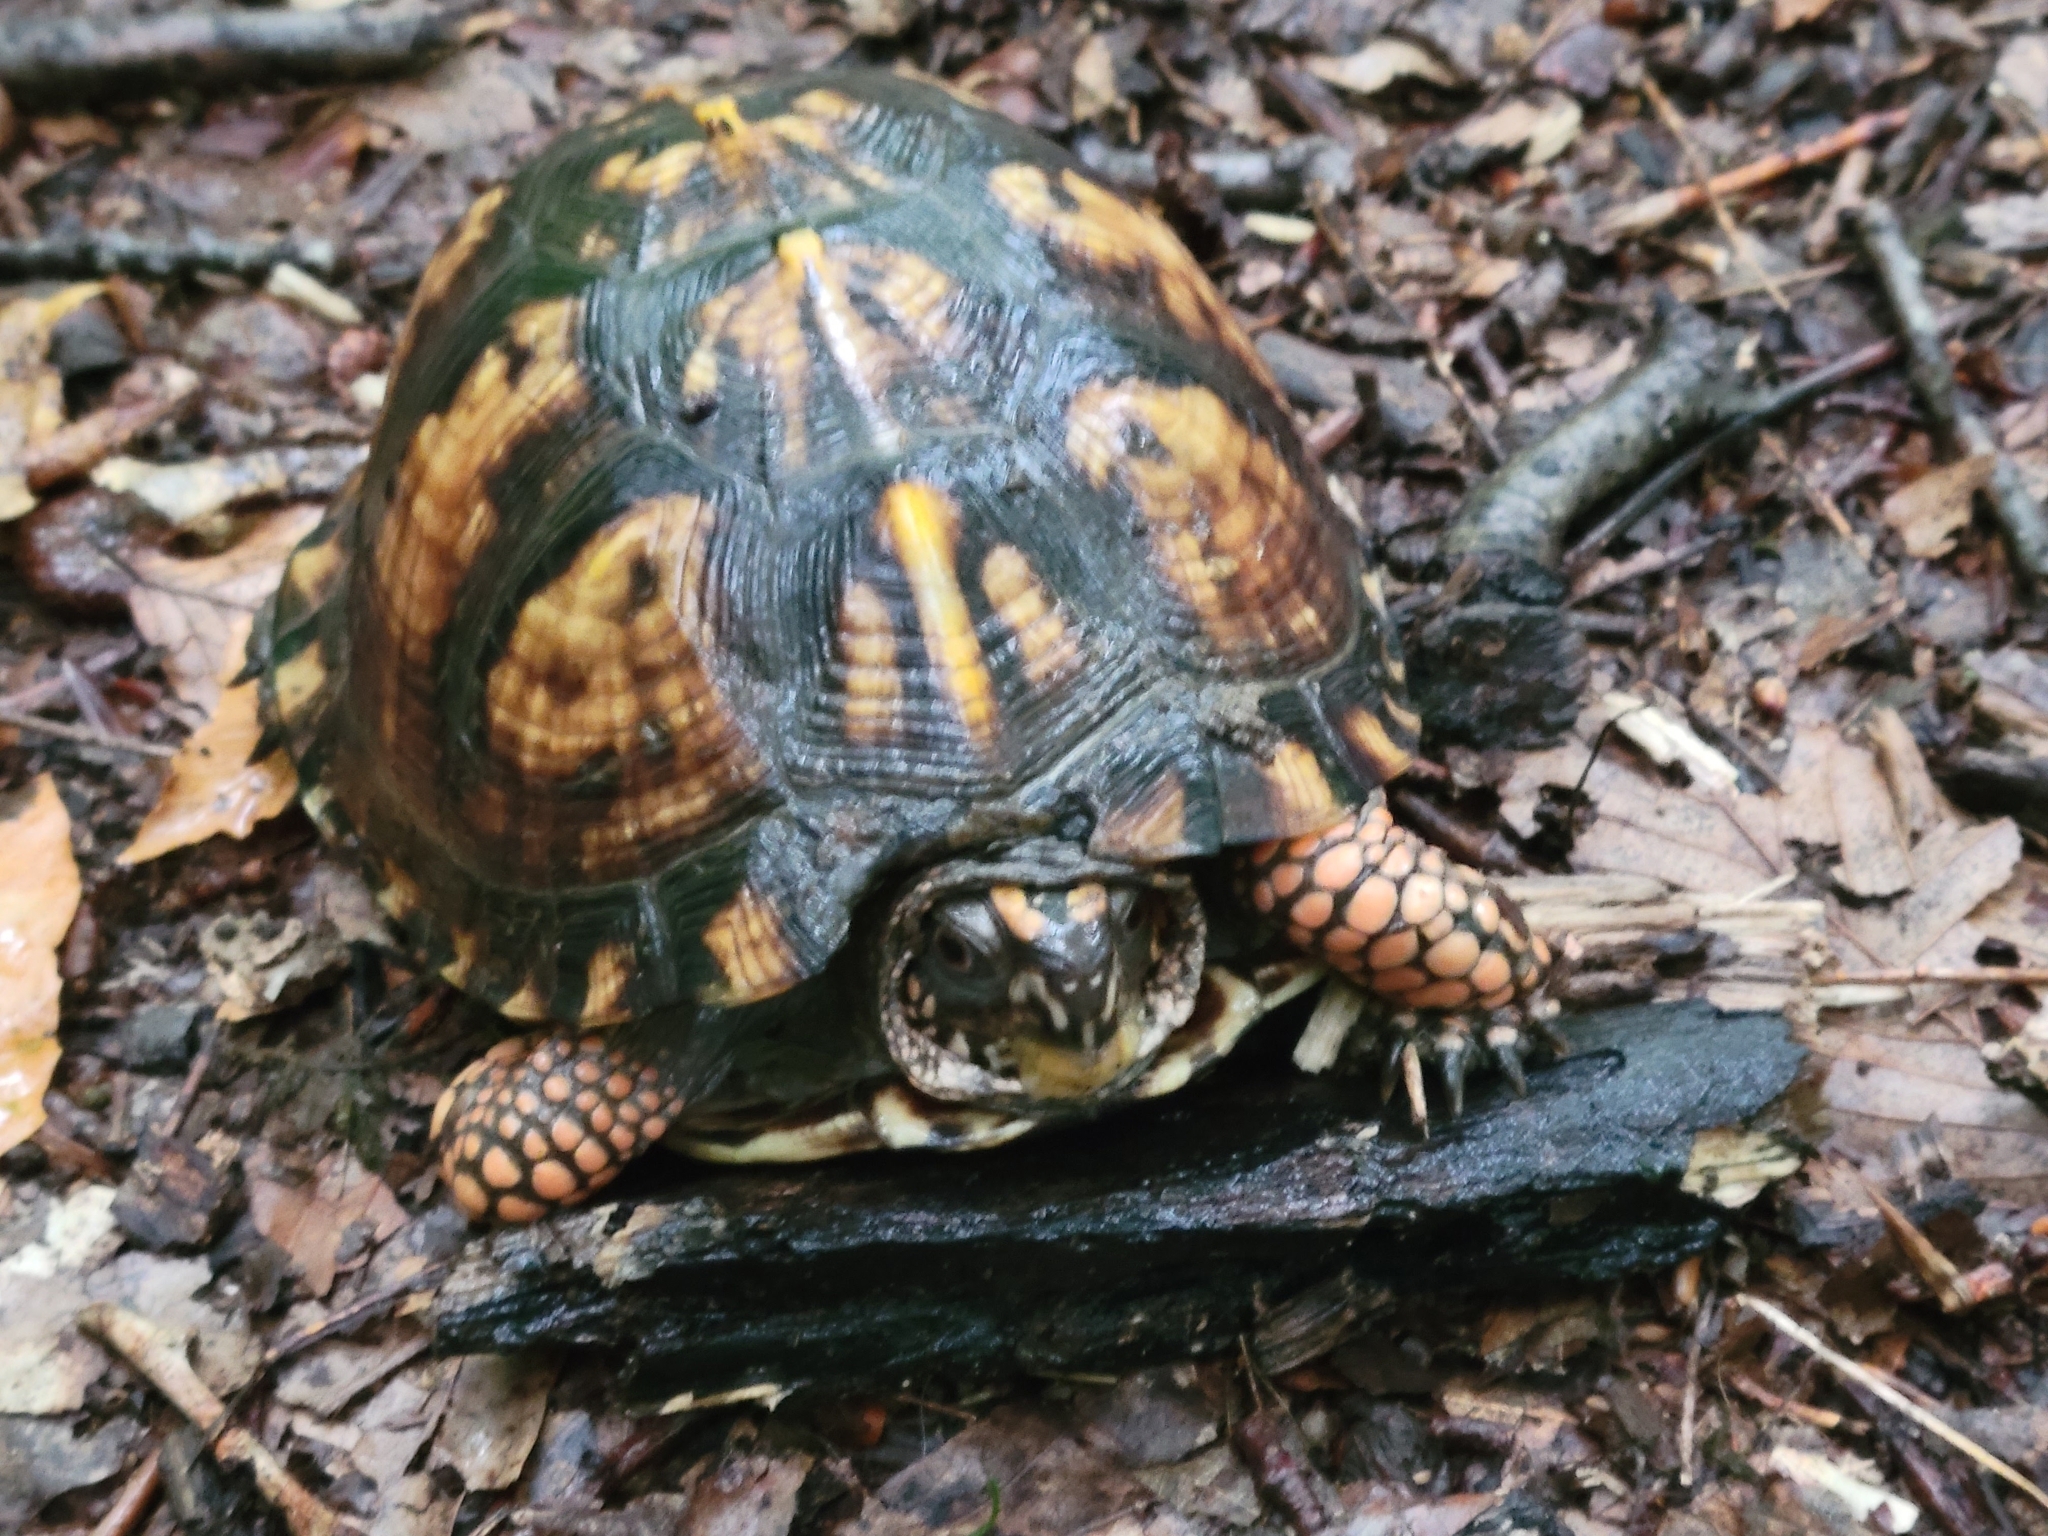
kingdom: Animalia
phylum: Chordata
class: Testudines
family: Emydidae
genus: Terrapene
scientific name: Terrapene carolina
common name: Common box turtle
